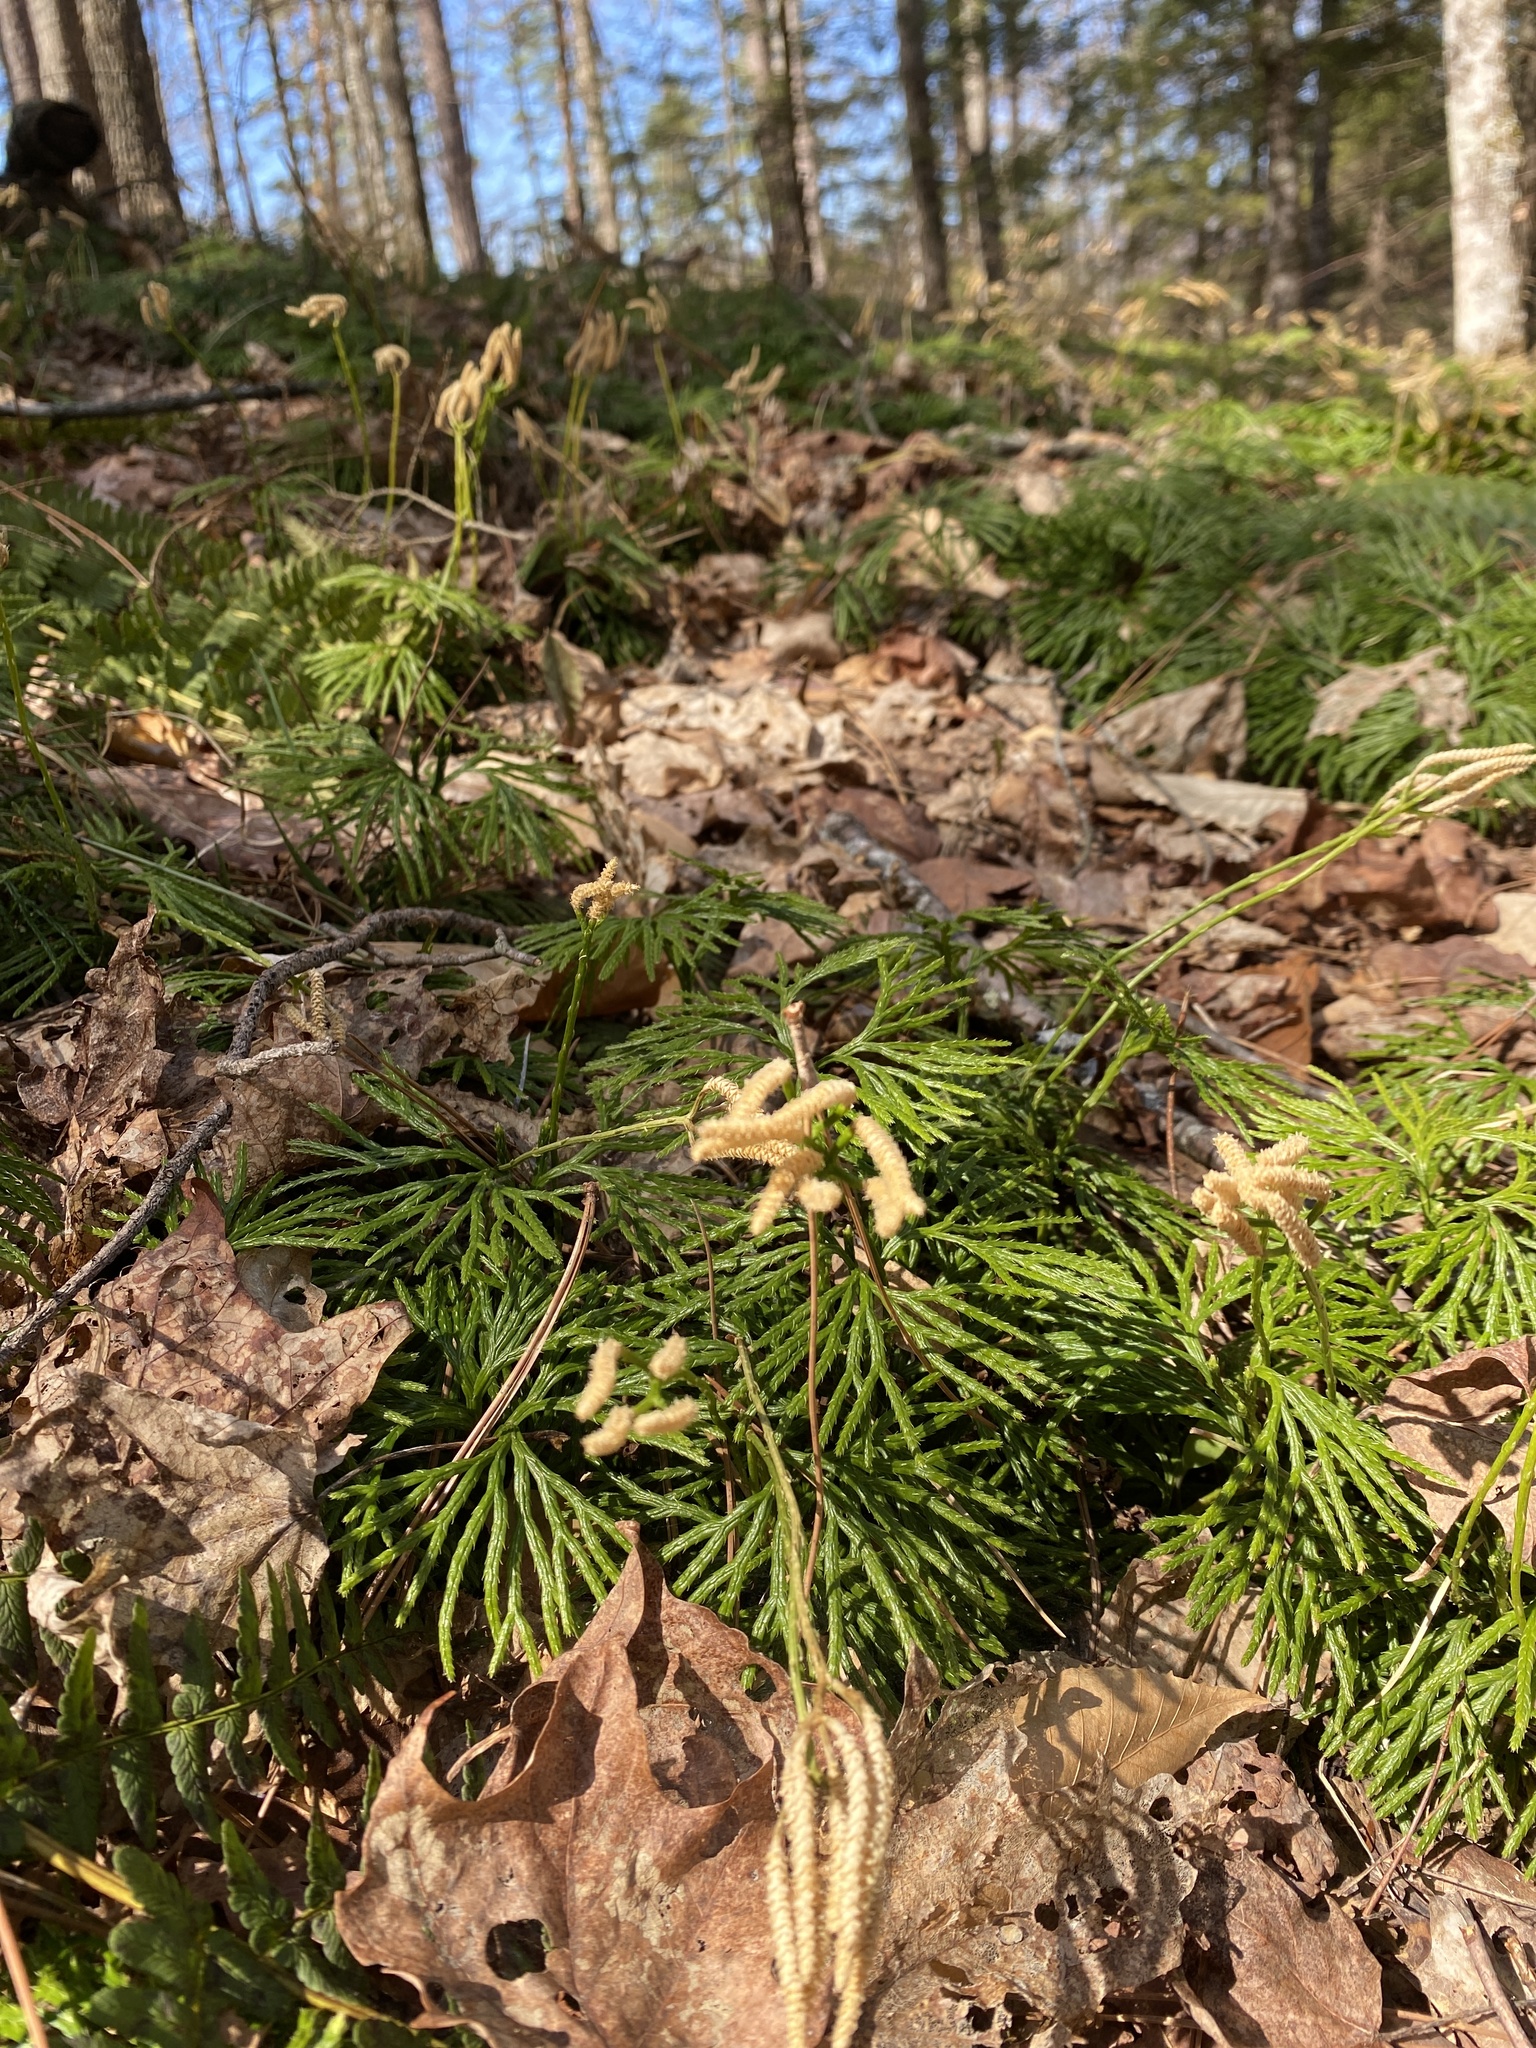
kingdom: Plantae
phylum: Tracheophyta
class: Lycopodiopsida
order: Lycopodiales
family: Lycopodiaceae
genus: Diphasiastrum
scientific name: Diphasiastrum digitatum
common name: Southern running-pine
